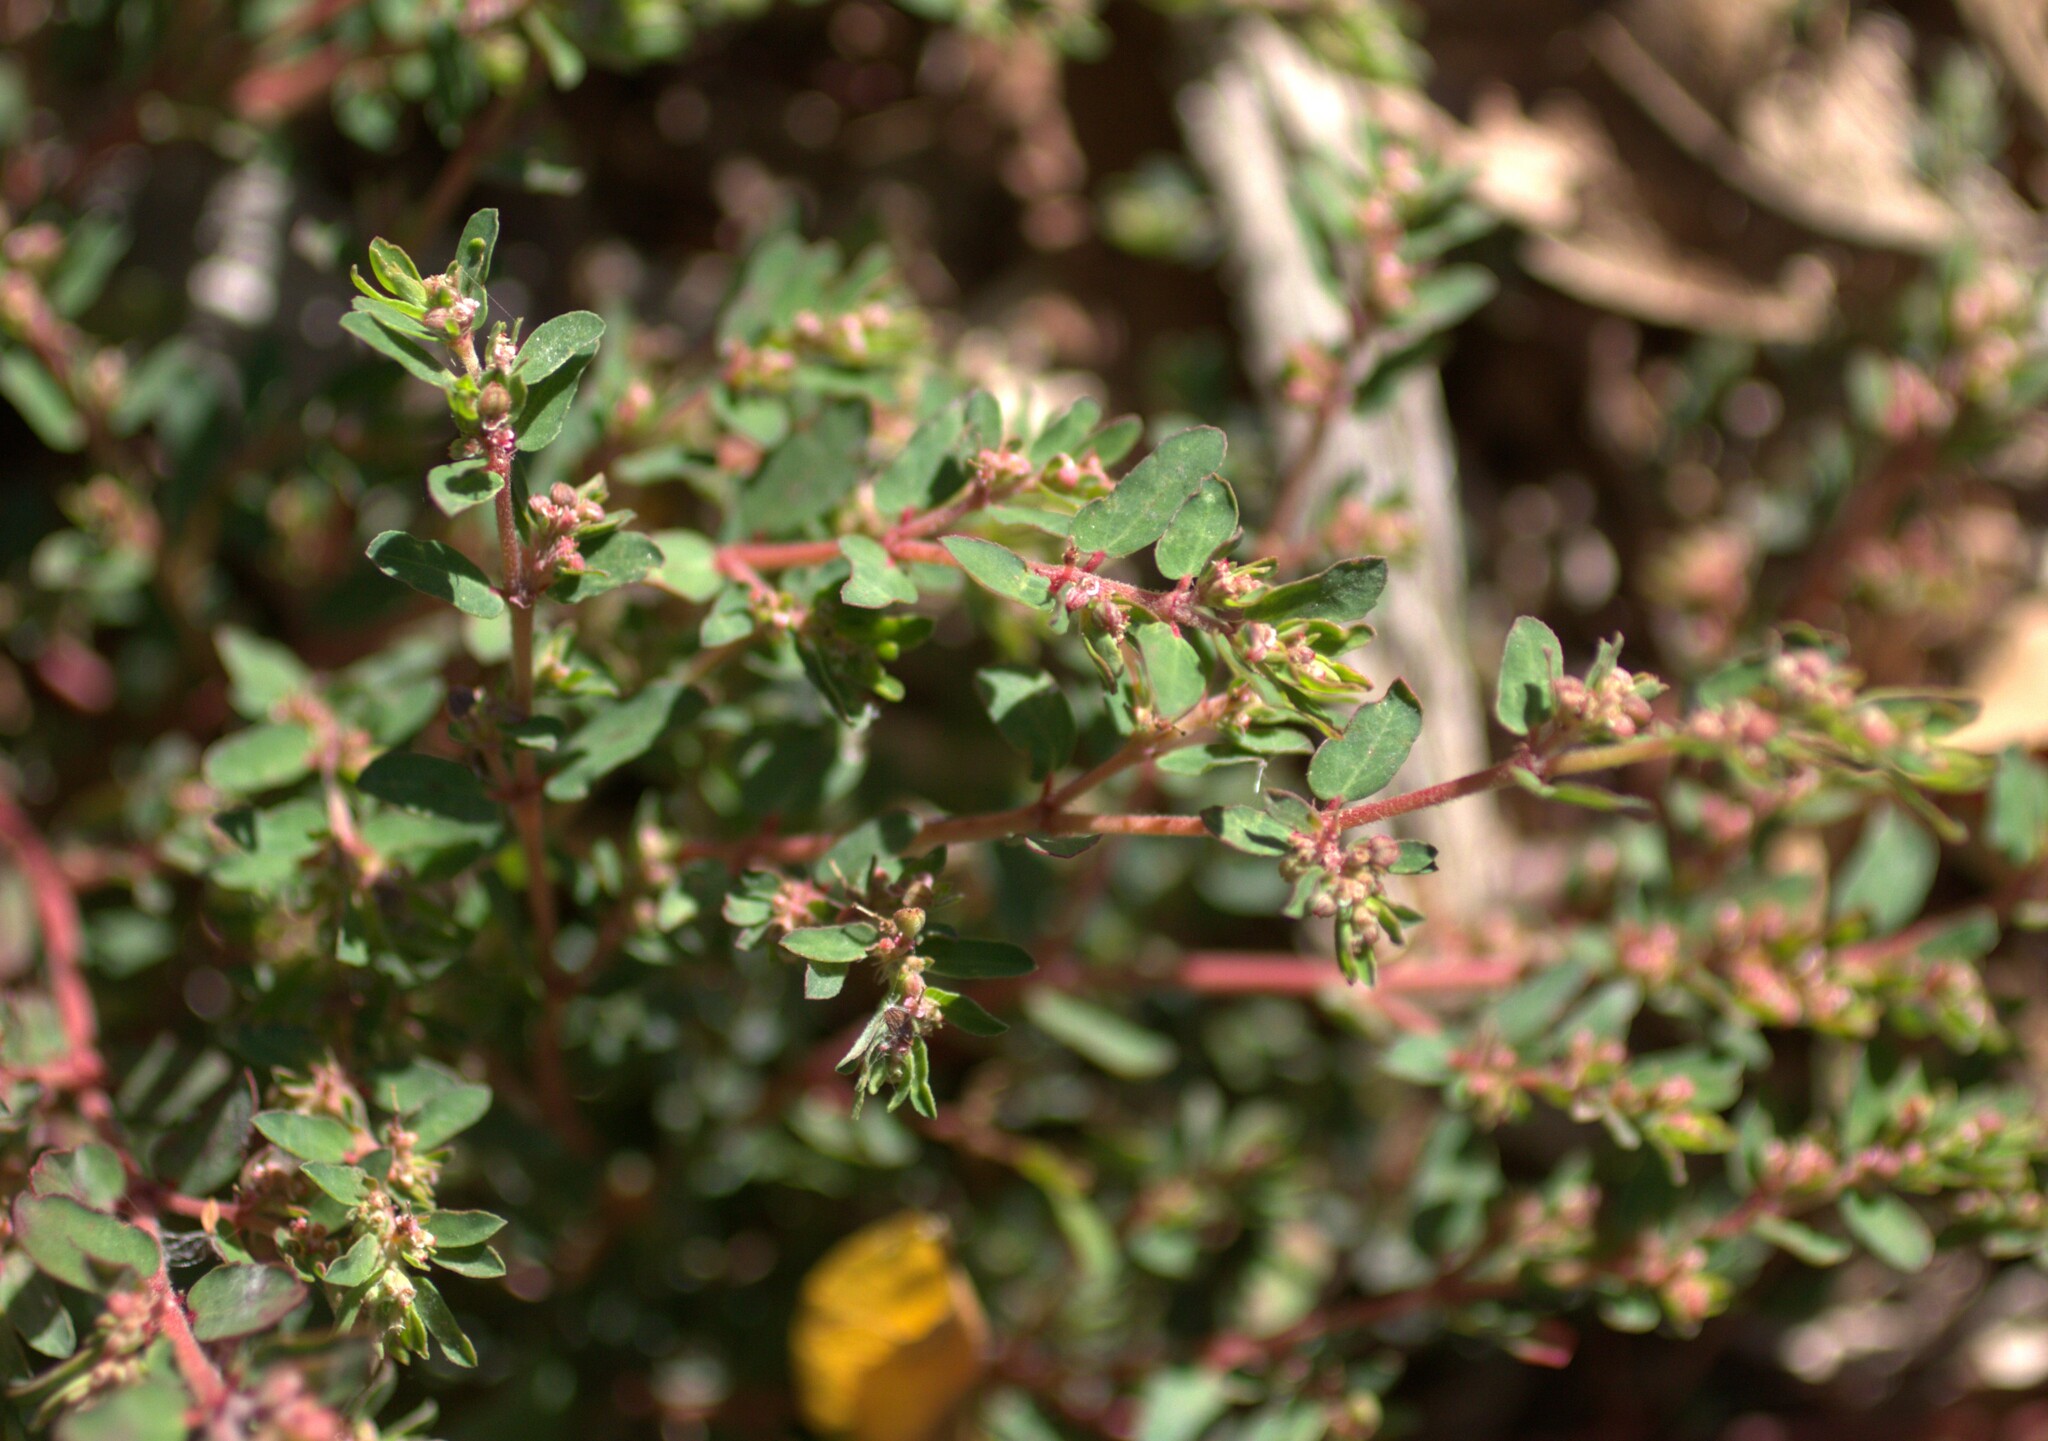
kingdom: Plantae
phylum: Tracheophyta
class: Magnoliopsida
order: Malpighiales
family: Euphorbiaceae
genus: Euphorbia
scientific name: Euphorbia maculata
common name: Spotted spurge
